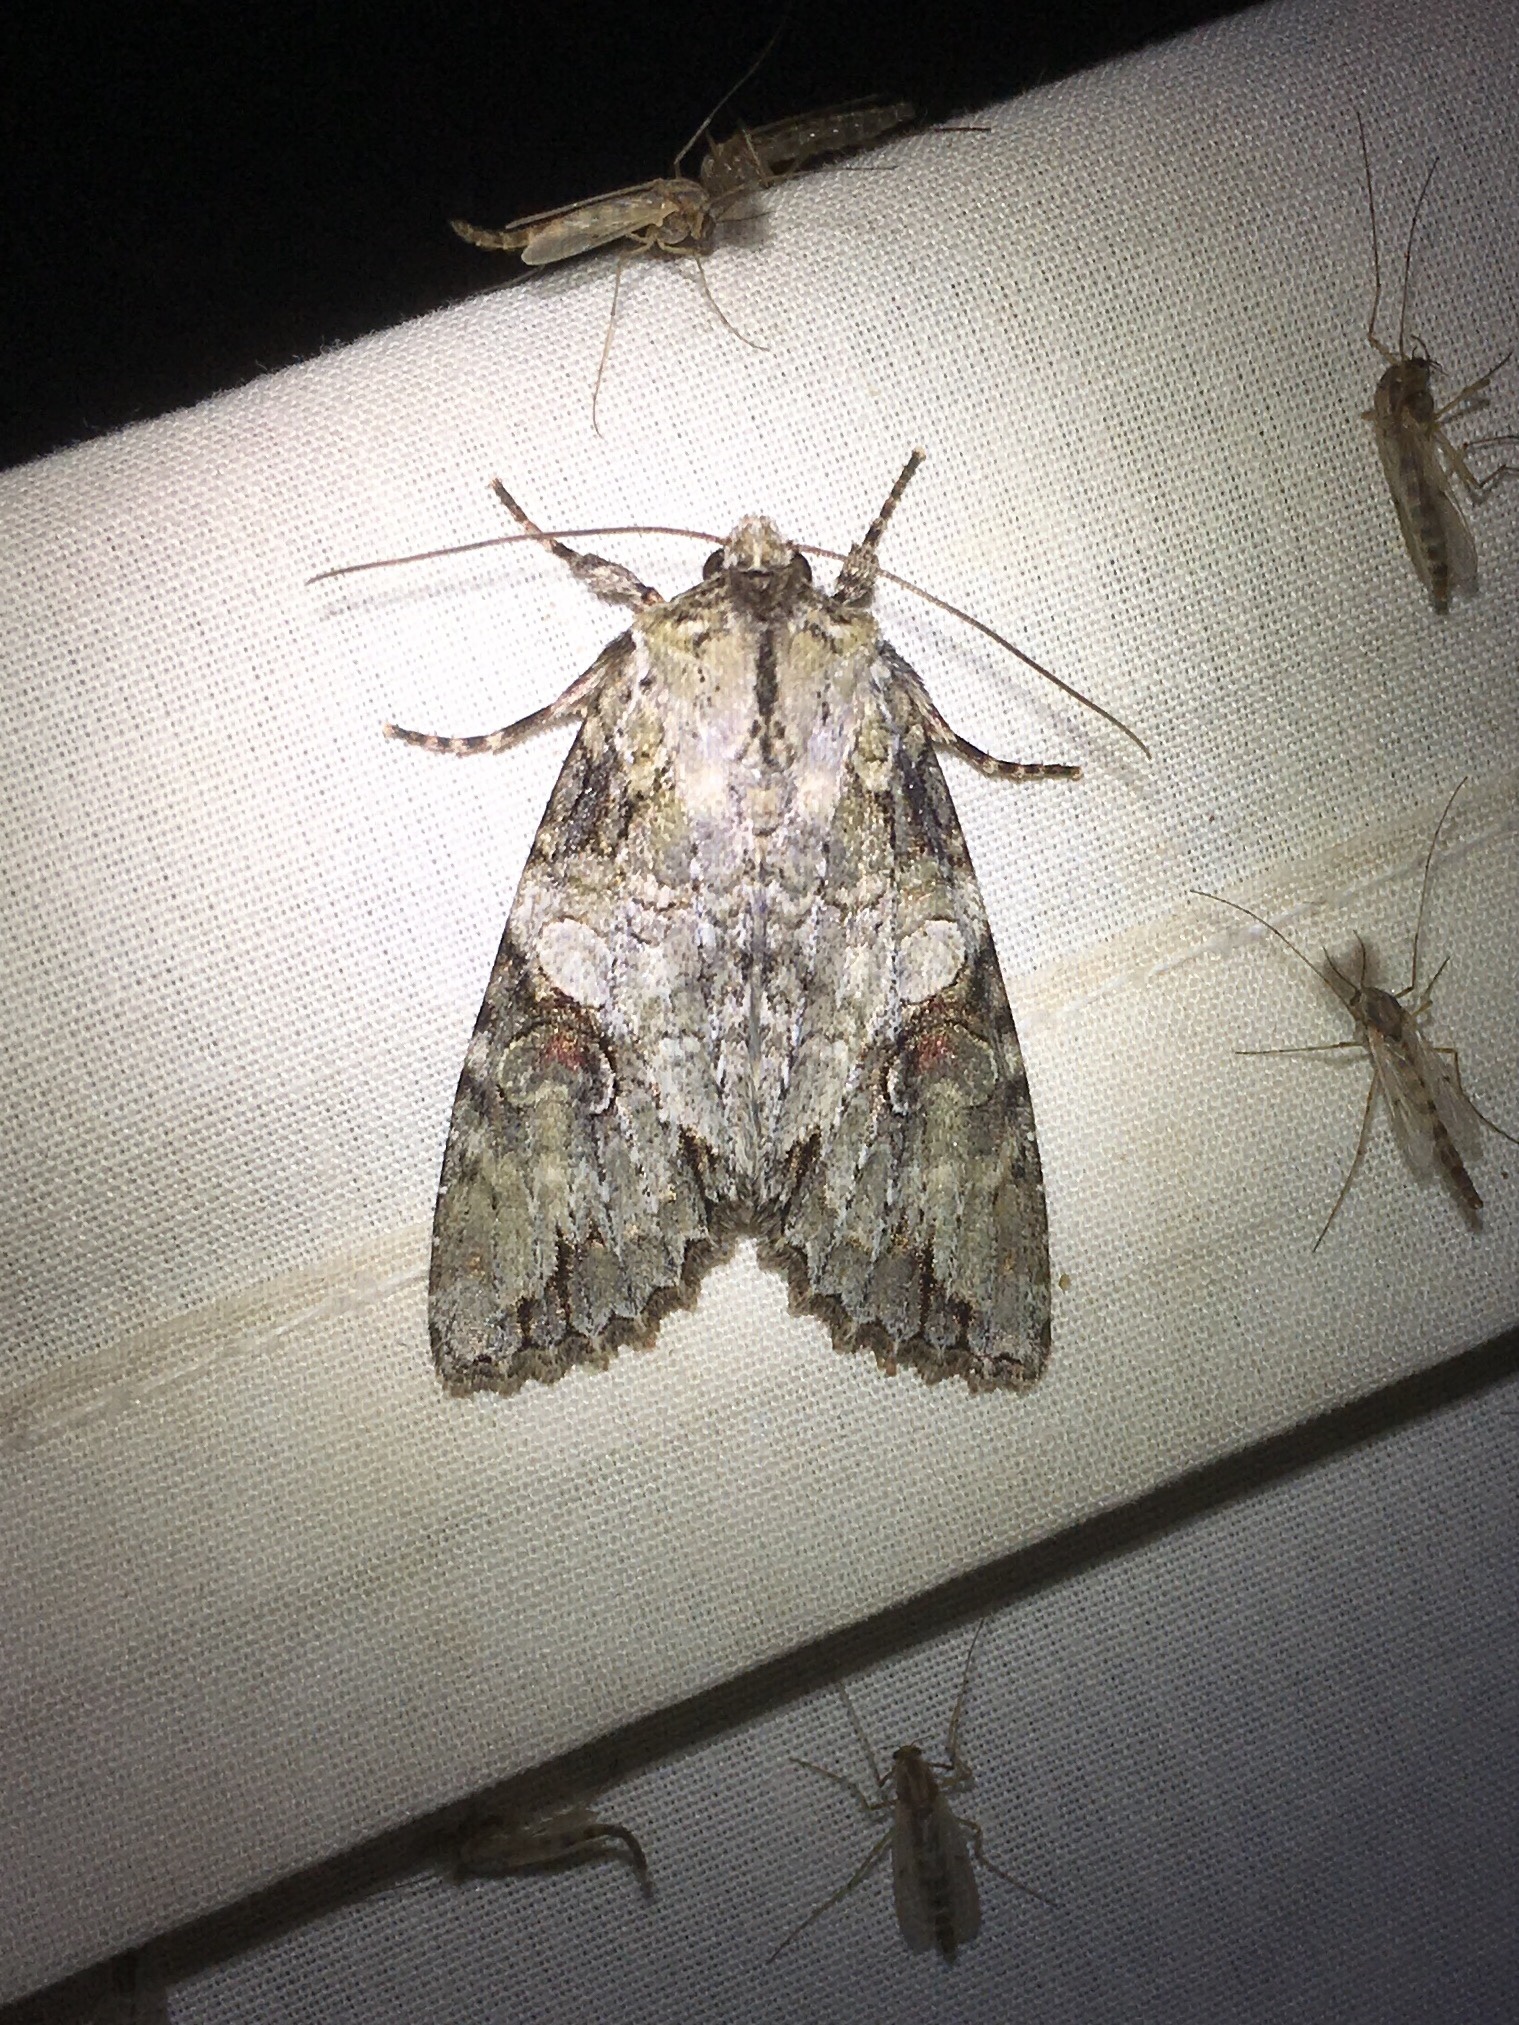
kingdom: Animalia
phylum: Arthropoda
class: Insecta
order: Lepidoptera
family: Noctuidae
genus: Achatia
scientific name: Achatia latex
